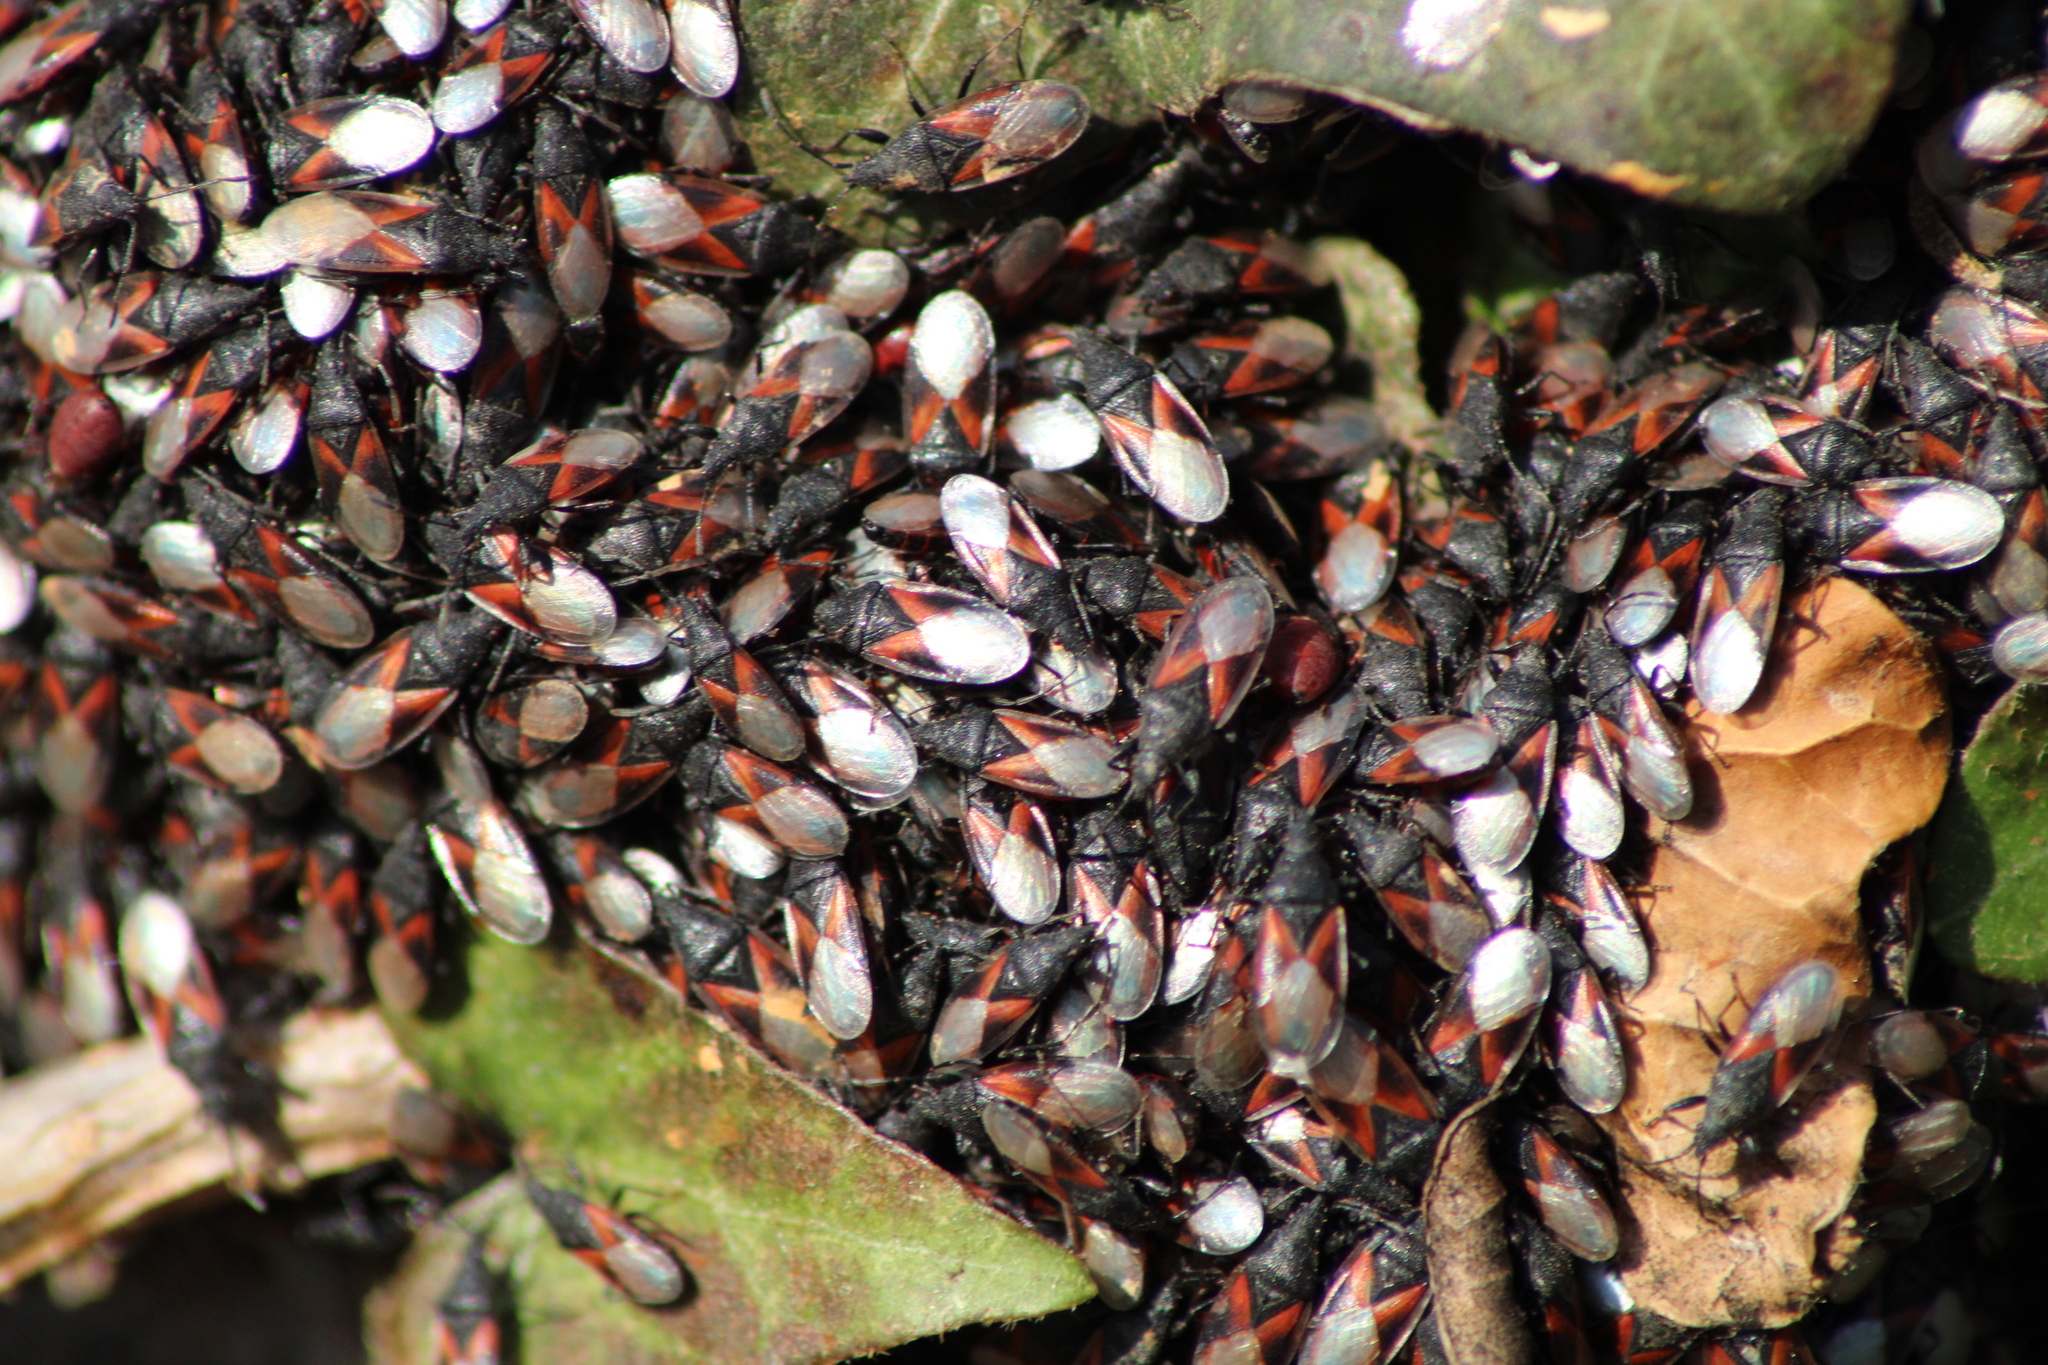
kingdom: Animalia
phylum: Arthropoda
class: Insecta
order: Hemiptera
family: Oxycarenidae
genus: Oxycarenus
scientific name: Oxycarenus lavaterae
